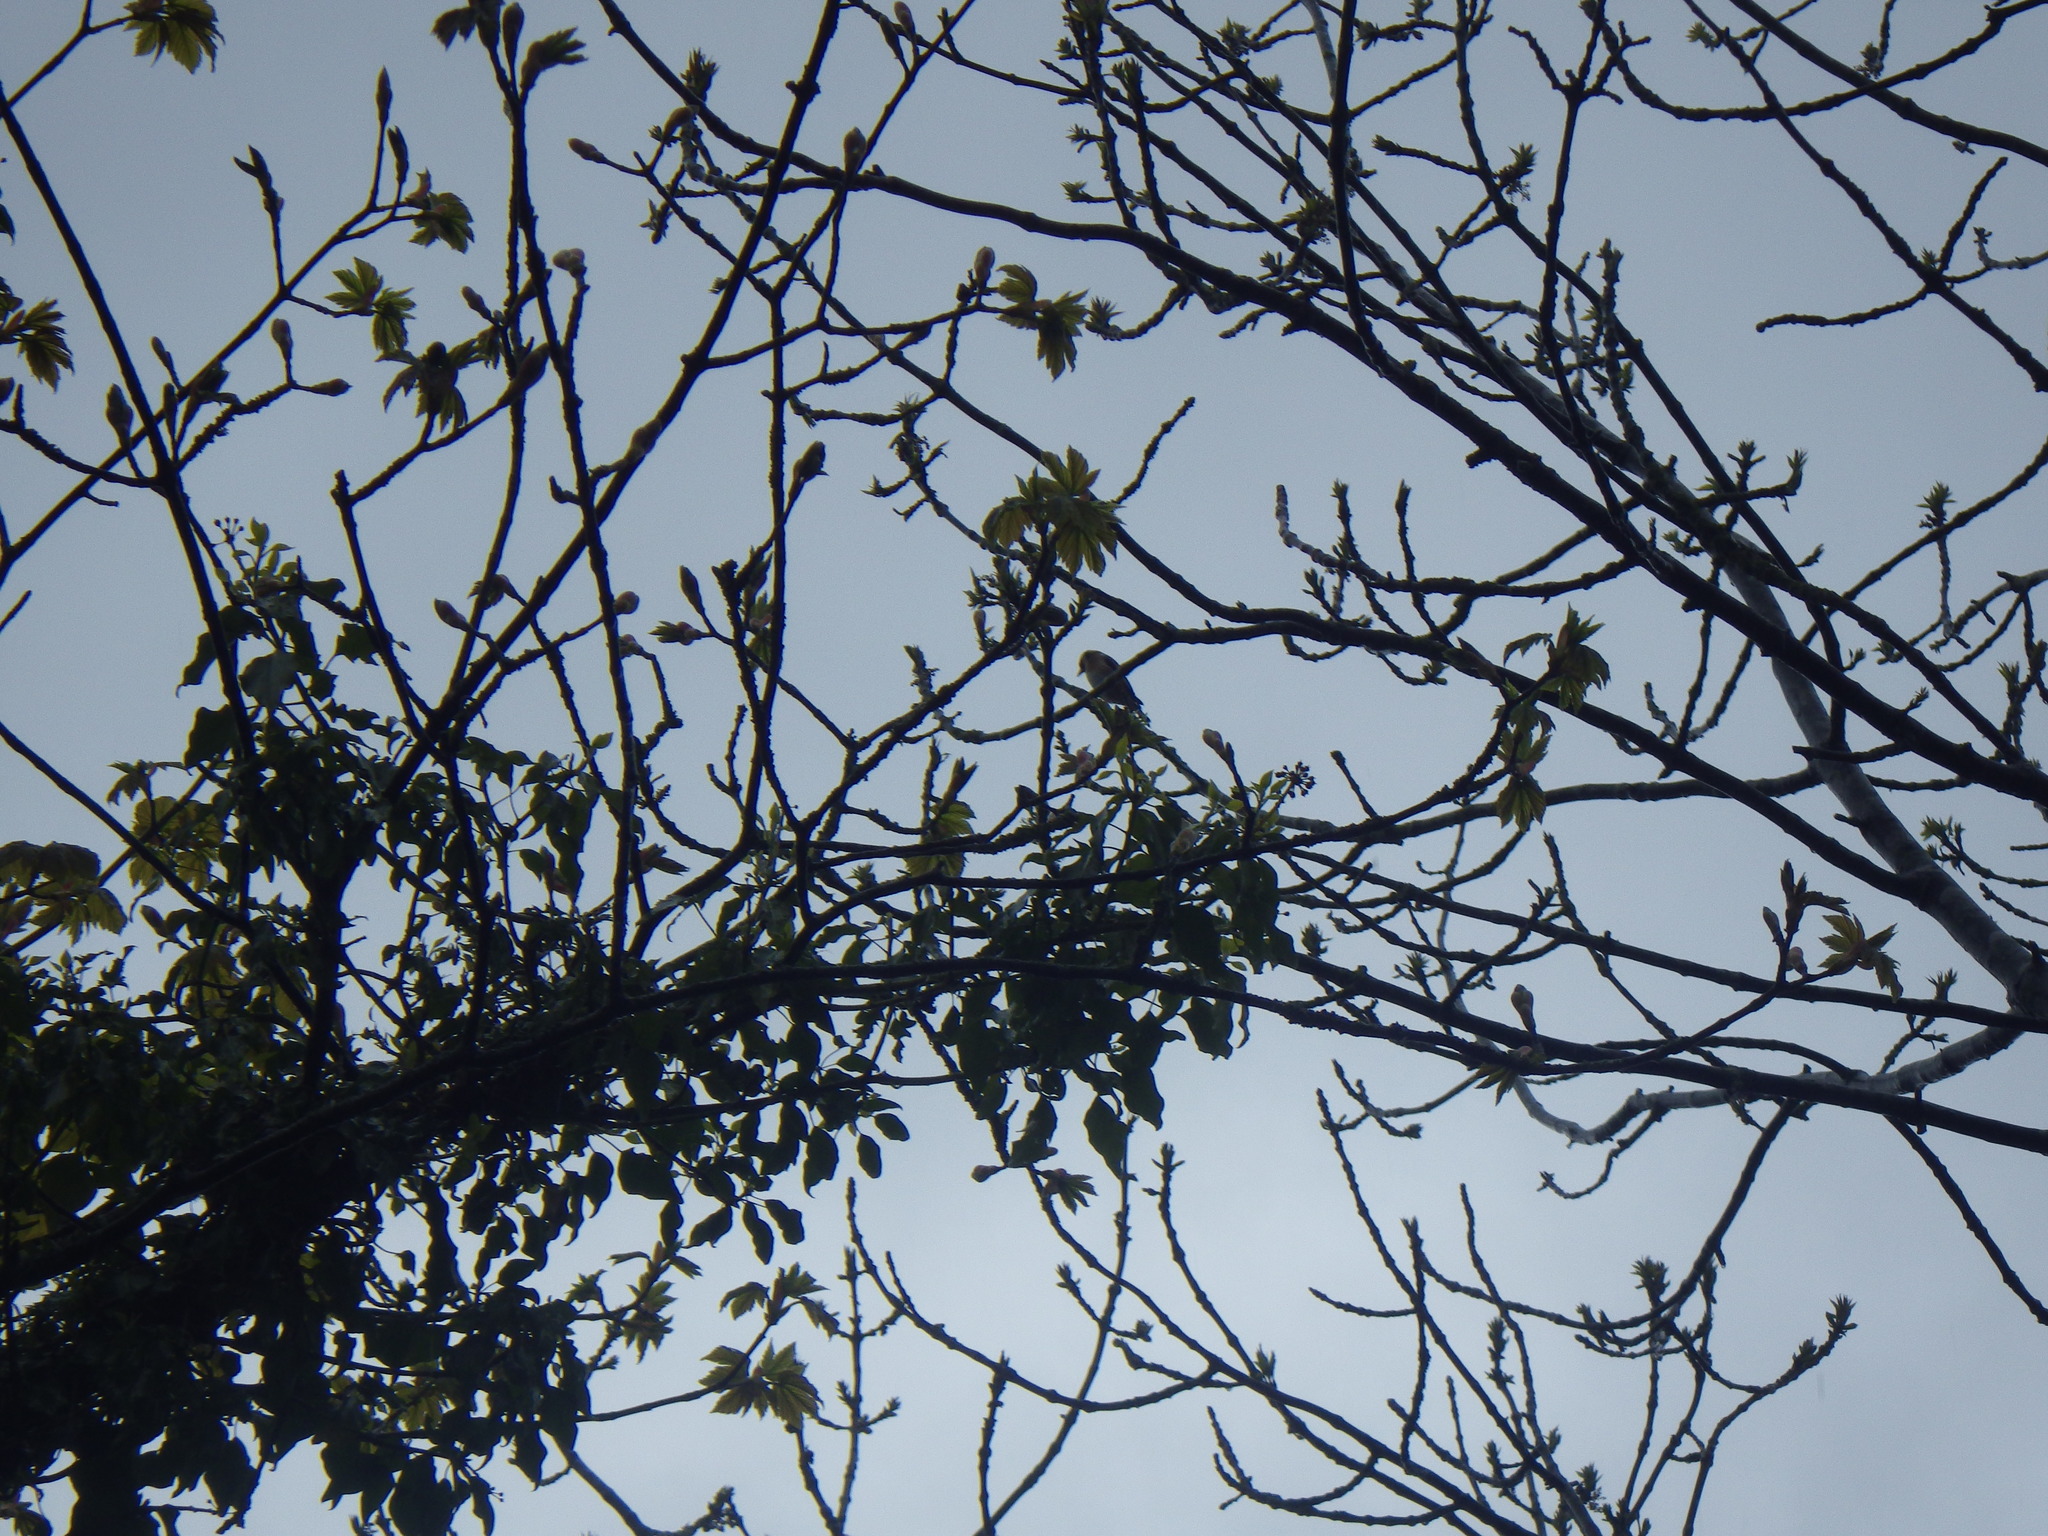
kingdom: Animalia
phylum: Chordata
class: Aves
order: Passeriformes
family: Fringillidae
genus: Carduelis
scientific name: Carduelis carduelis
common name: European goldfinch
